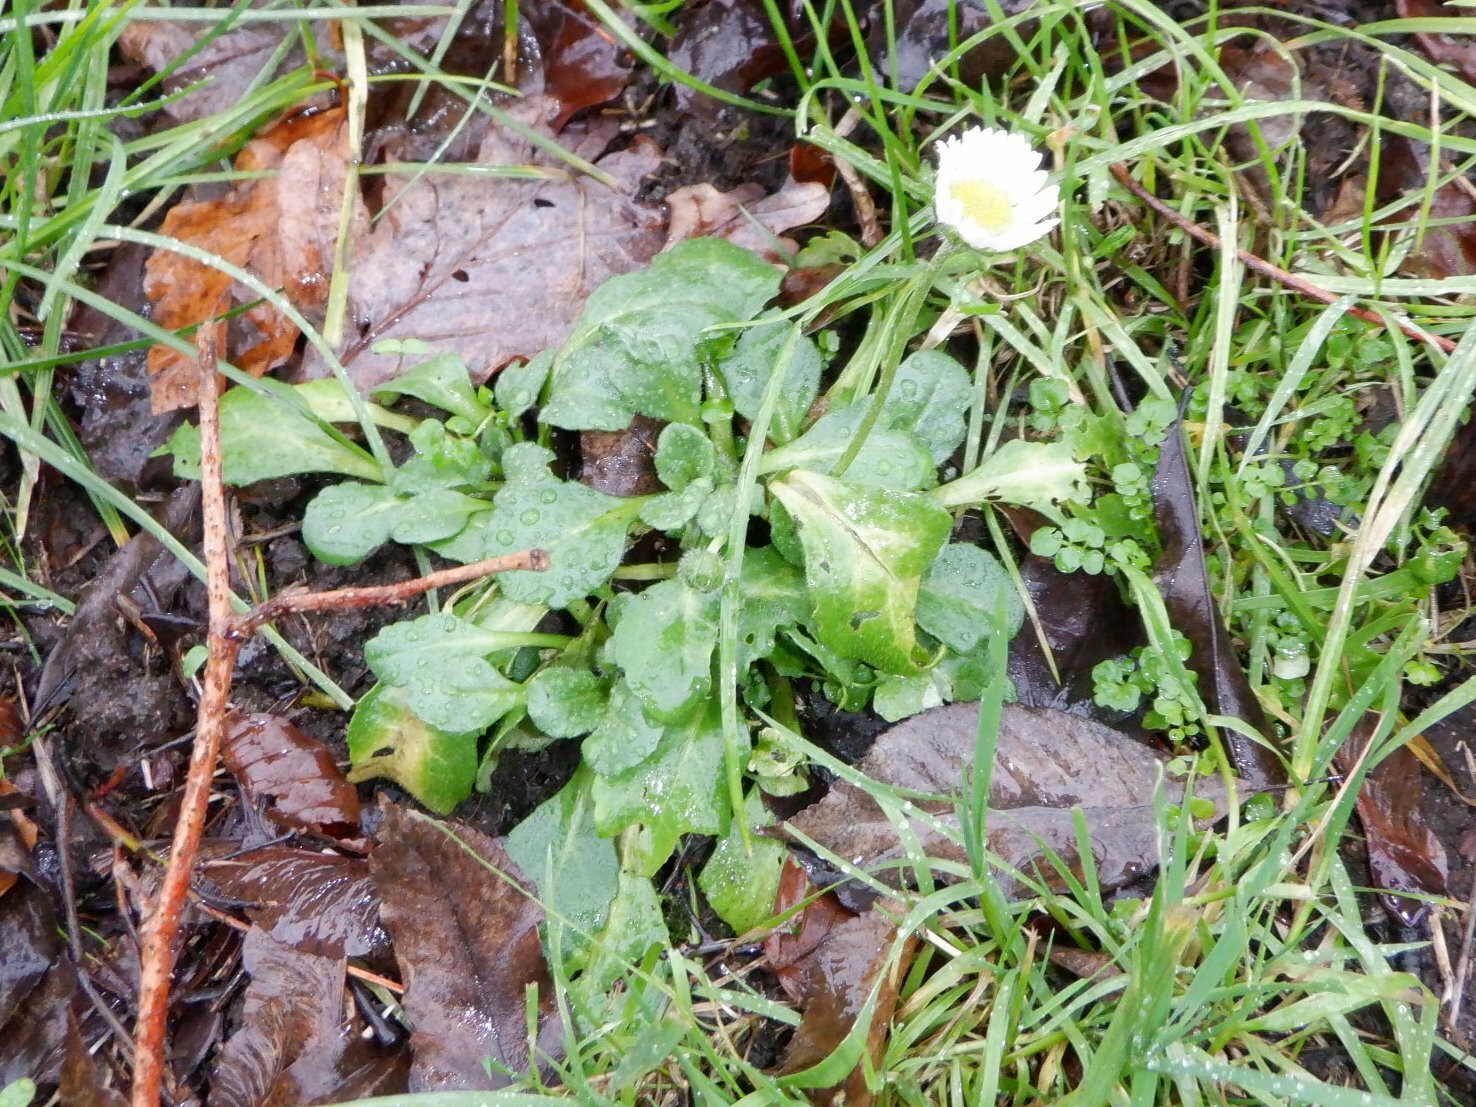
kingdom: Plantae
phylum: Tracheophyta
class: Magnoliopsida
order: Asterales
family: Asteraceae
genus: Bellis
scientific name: Bellis perennis
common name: Lawndaisy
